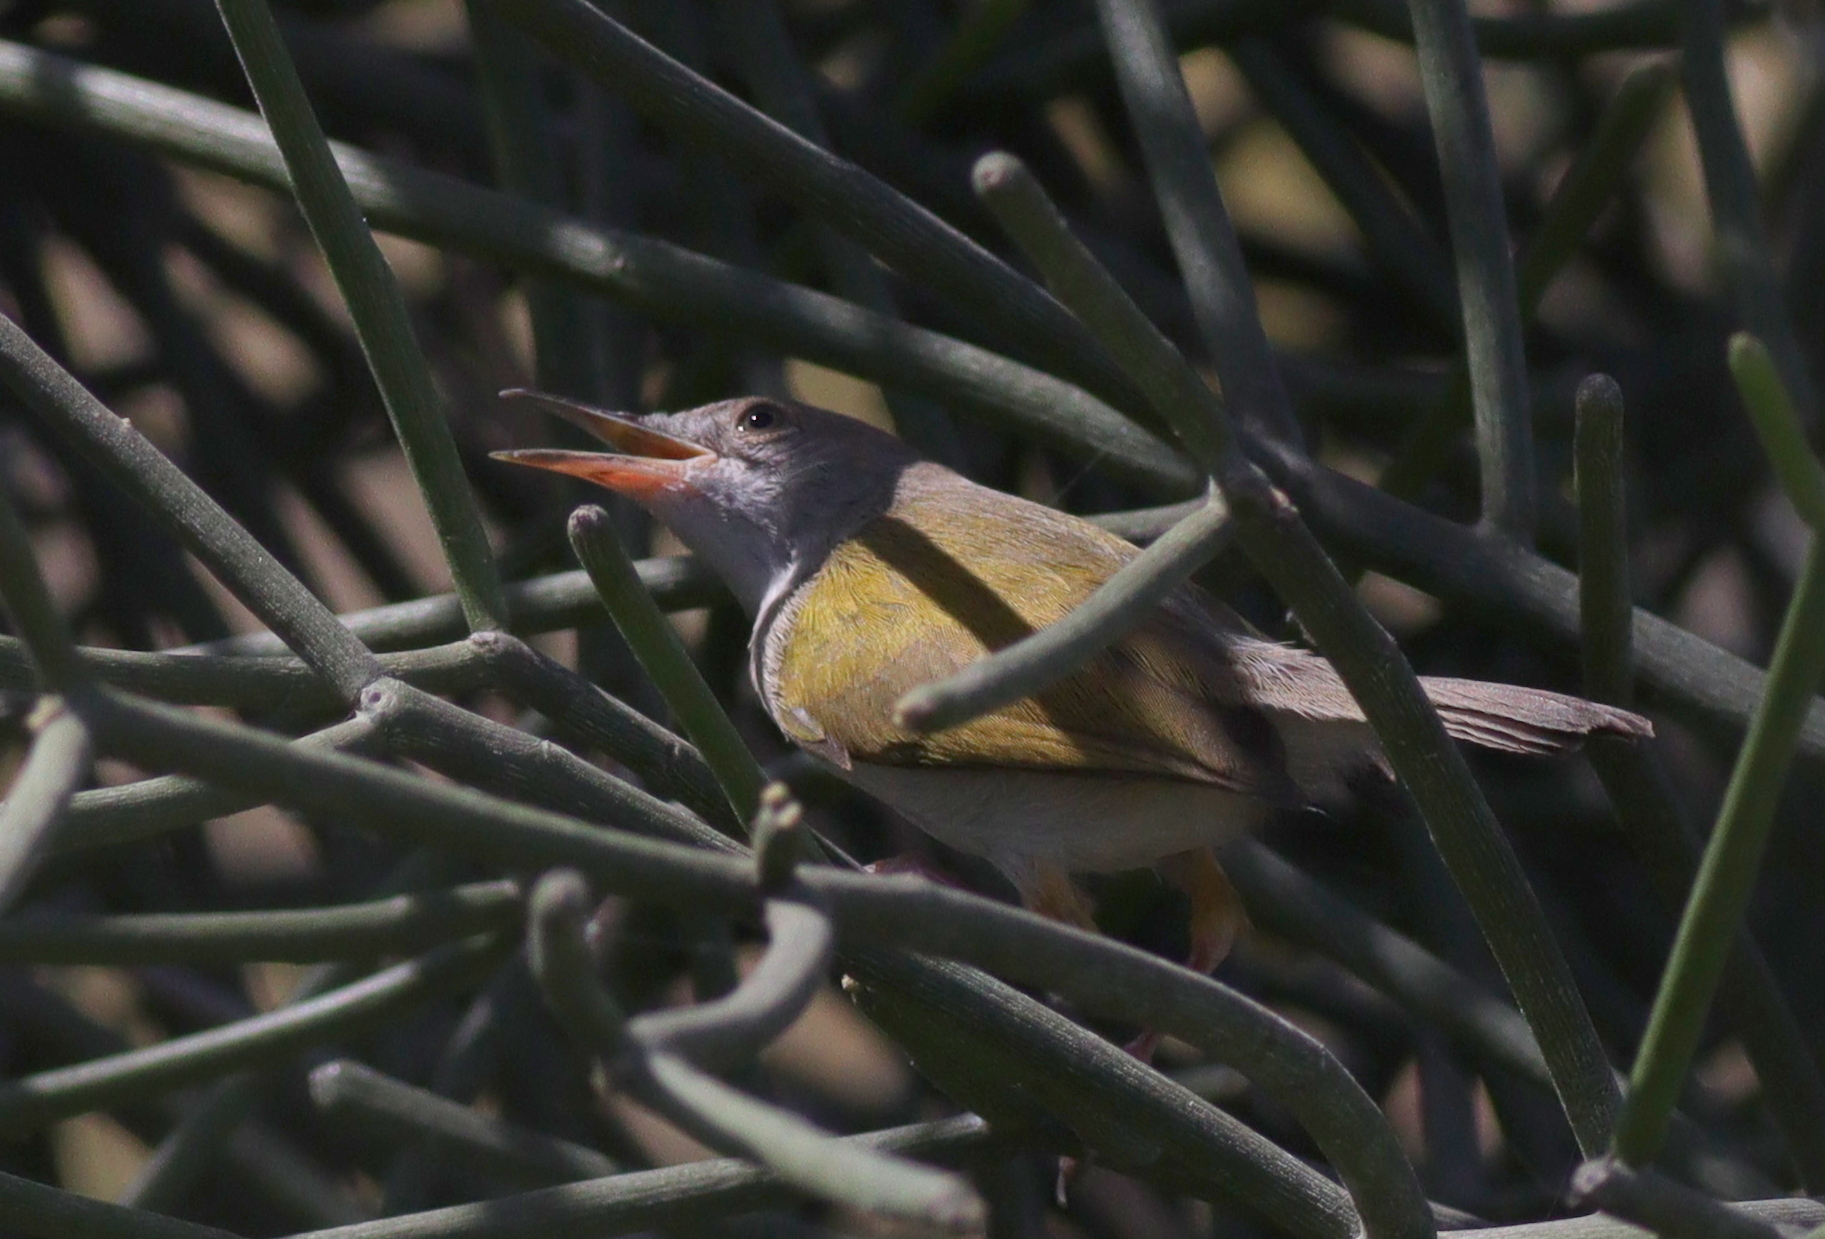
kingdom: Animalia
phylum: Chordata
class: Aves
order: Passeriformes
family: Cisticolidae
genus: Camaroptera
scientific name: Camaroptera brachyura
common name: Green-backed camaroptera
